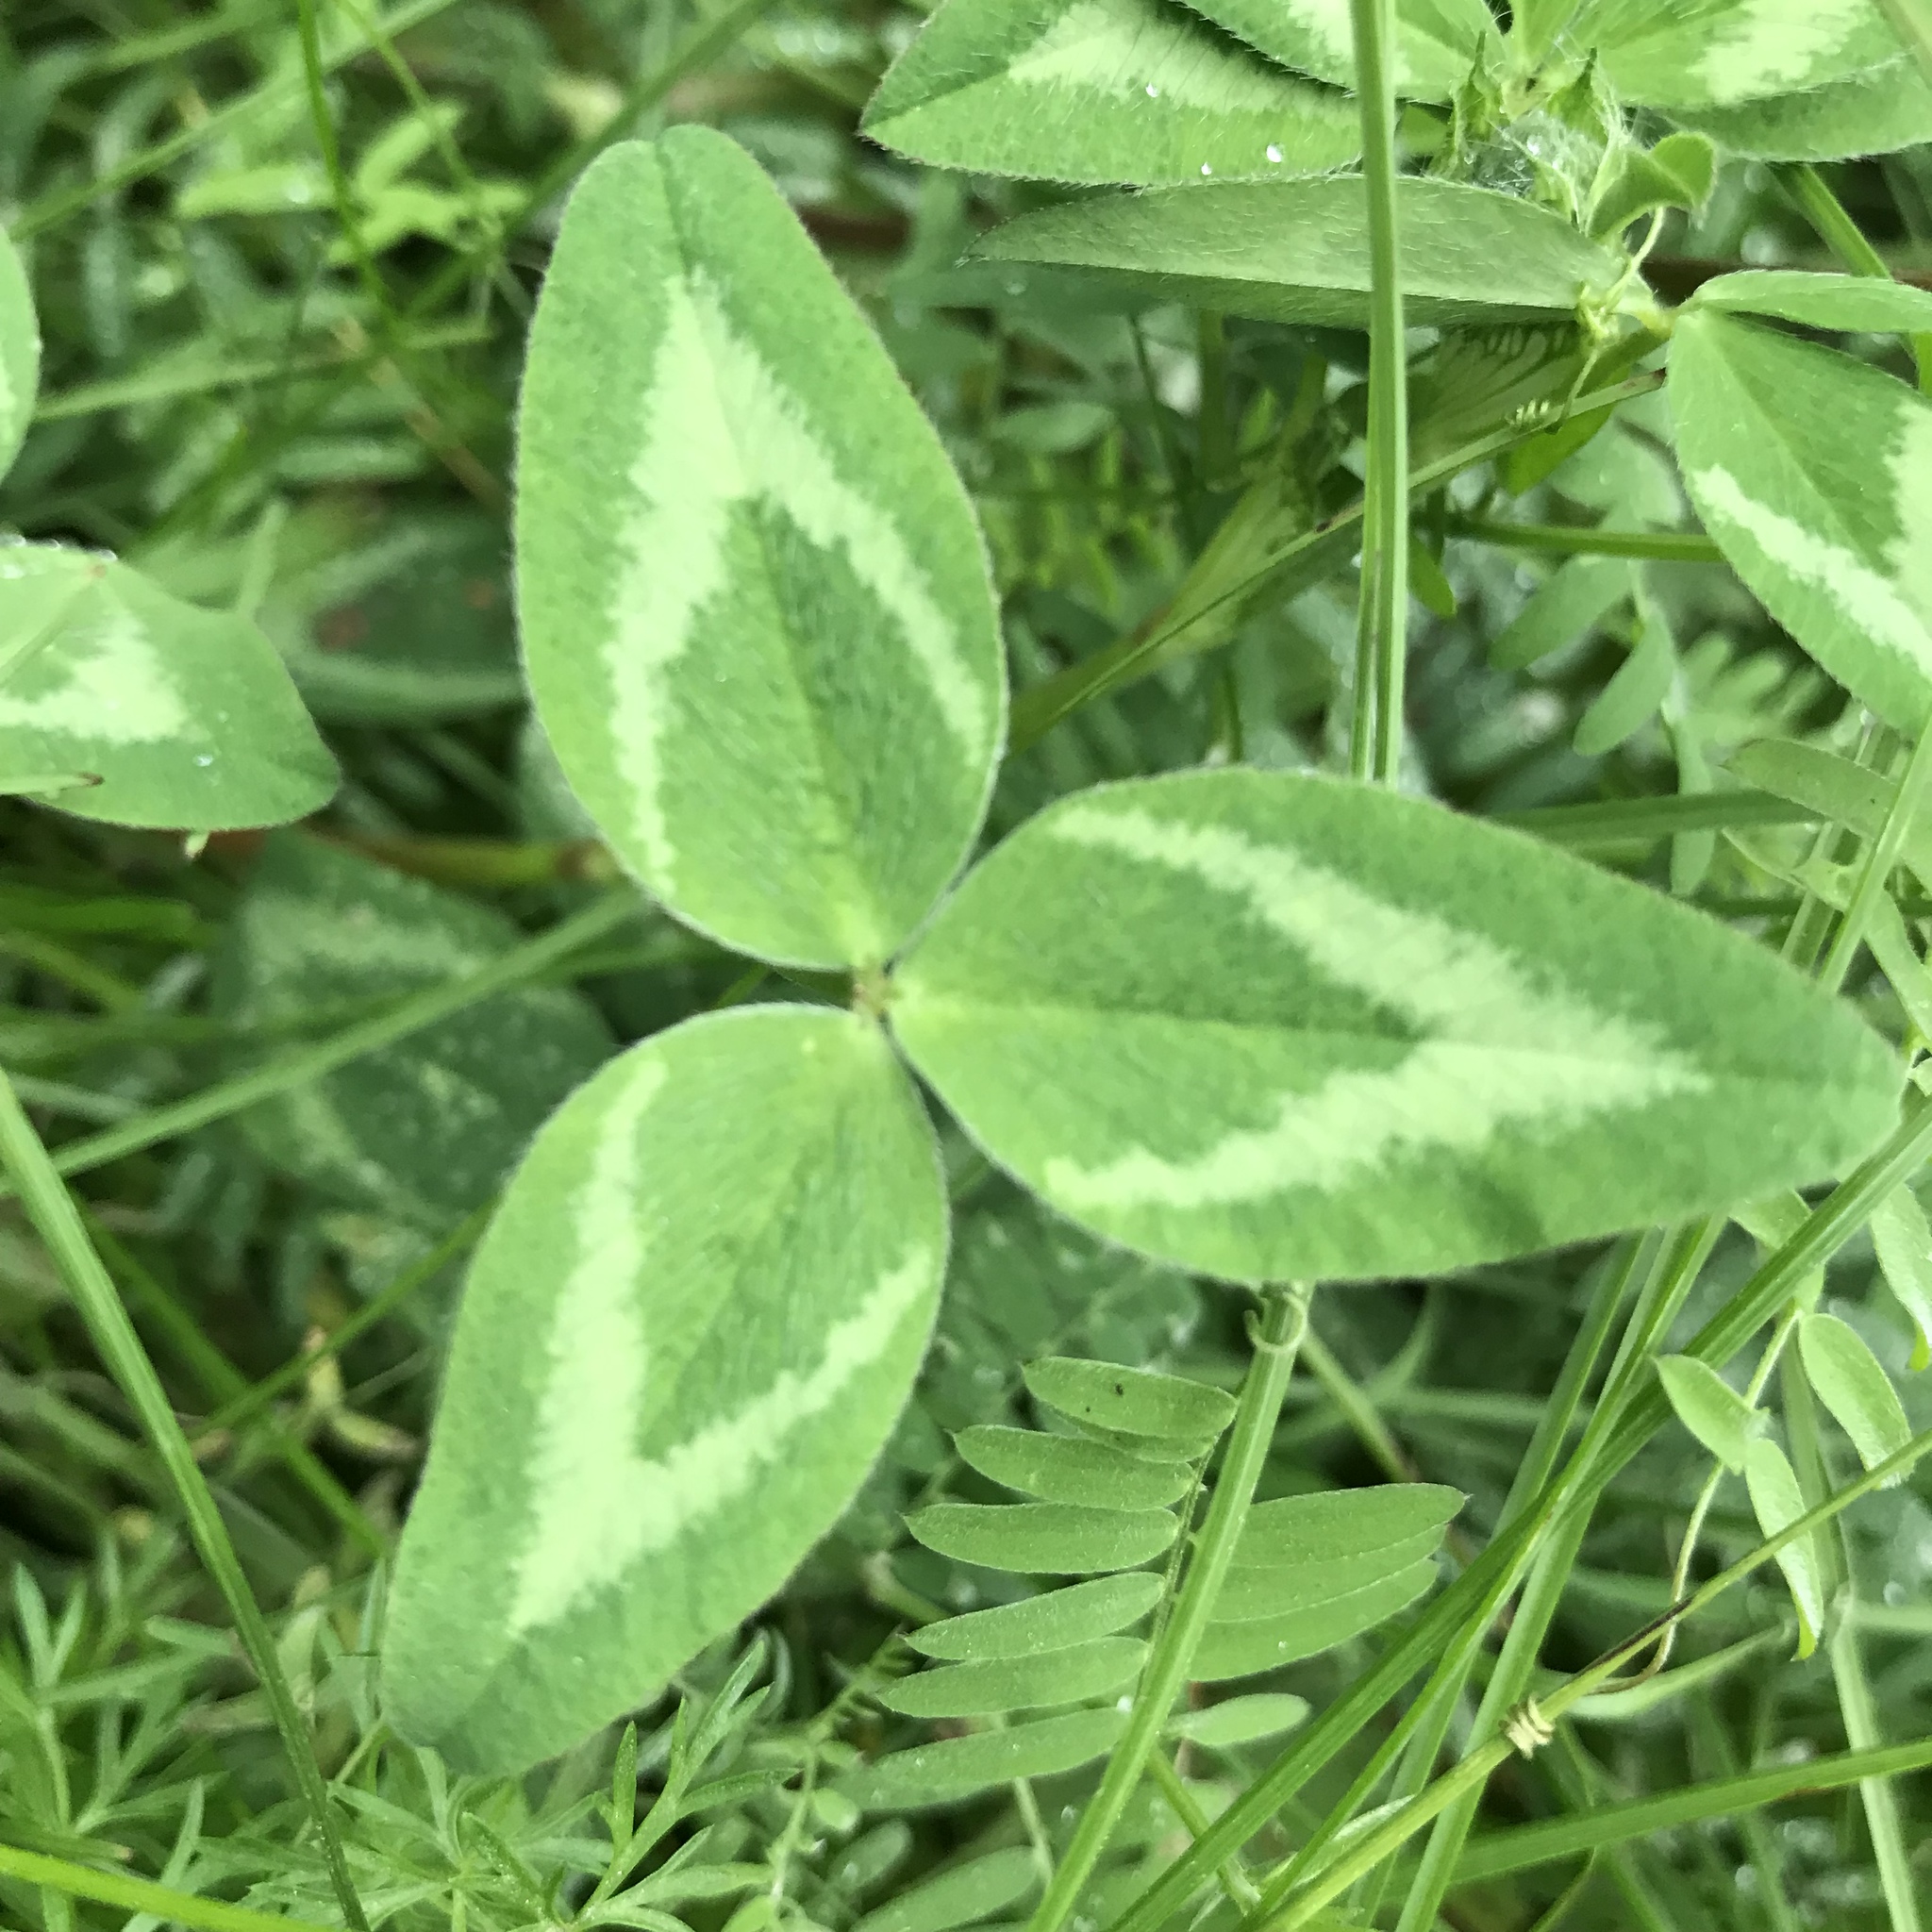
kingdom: Plantae
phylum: Tracheophyta
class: Magnoliopsida
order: Fabales
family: Fabaceae
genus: Trifolium
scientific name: Trifolium pratense
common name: Red clover
